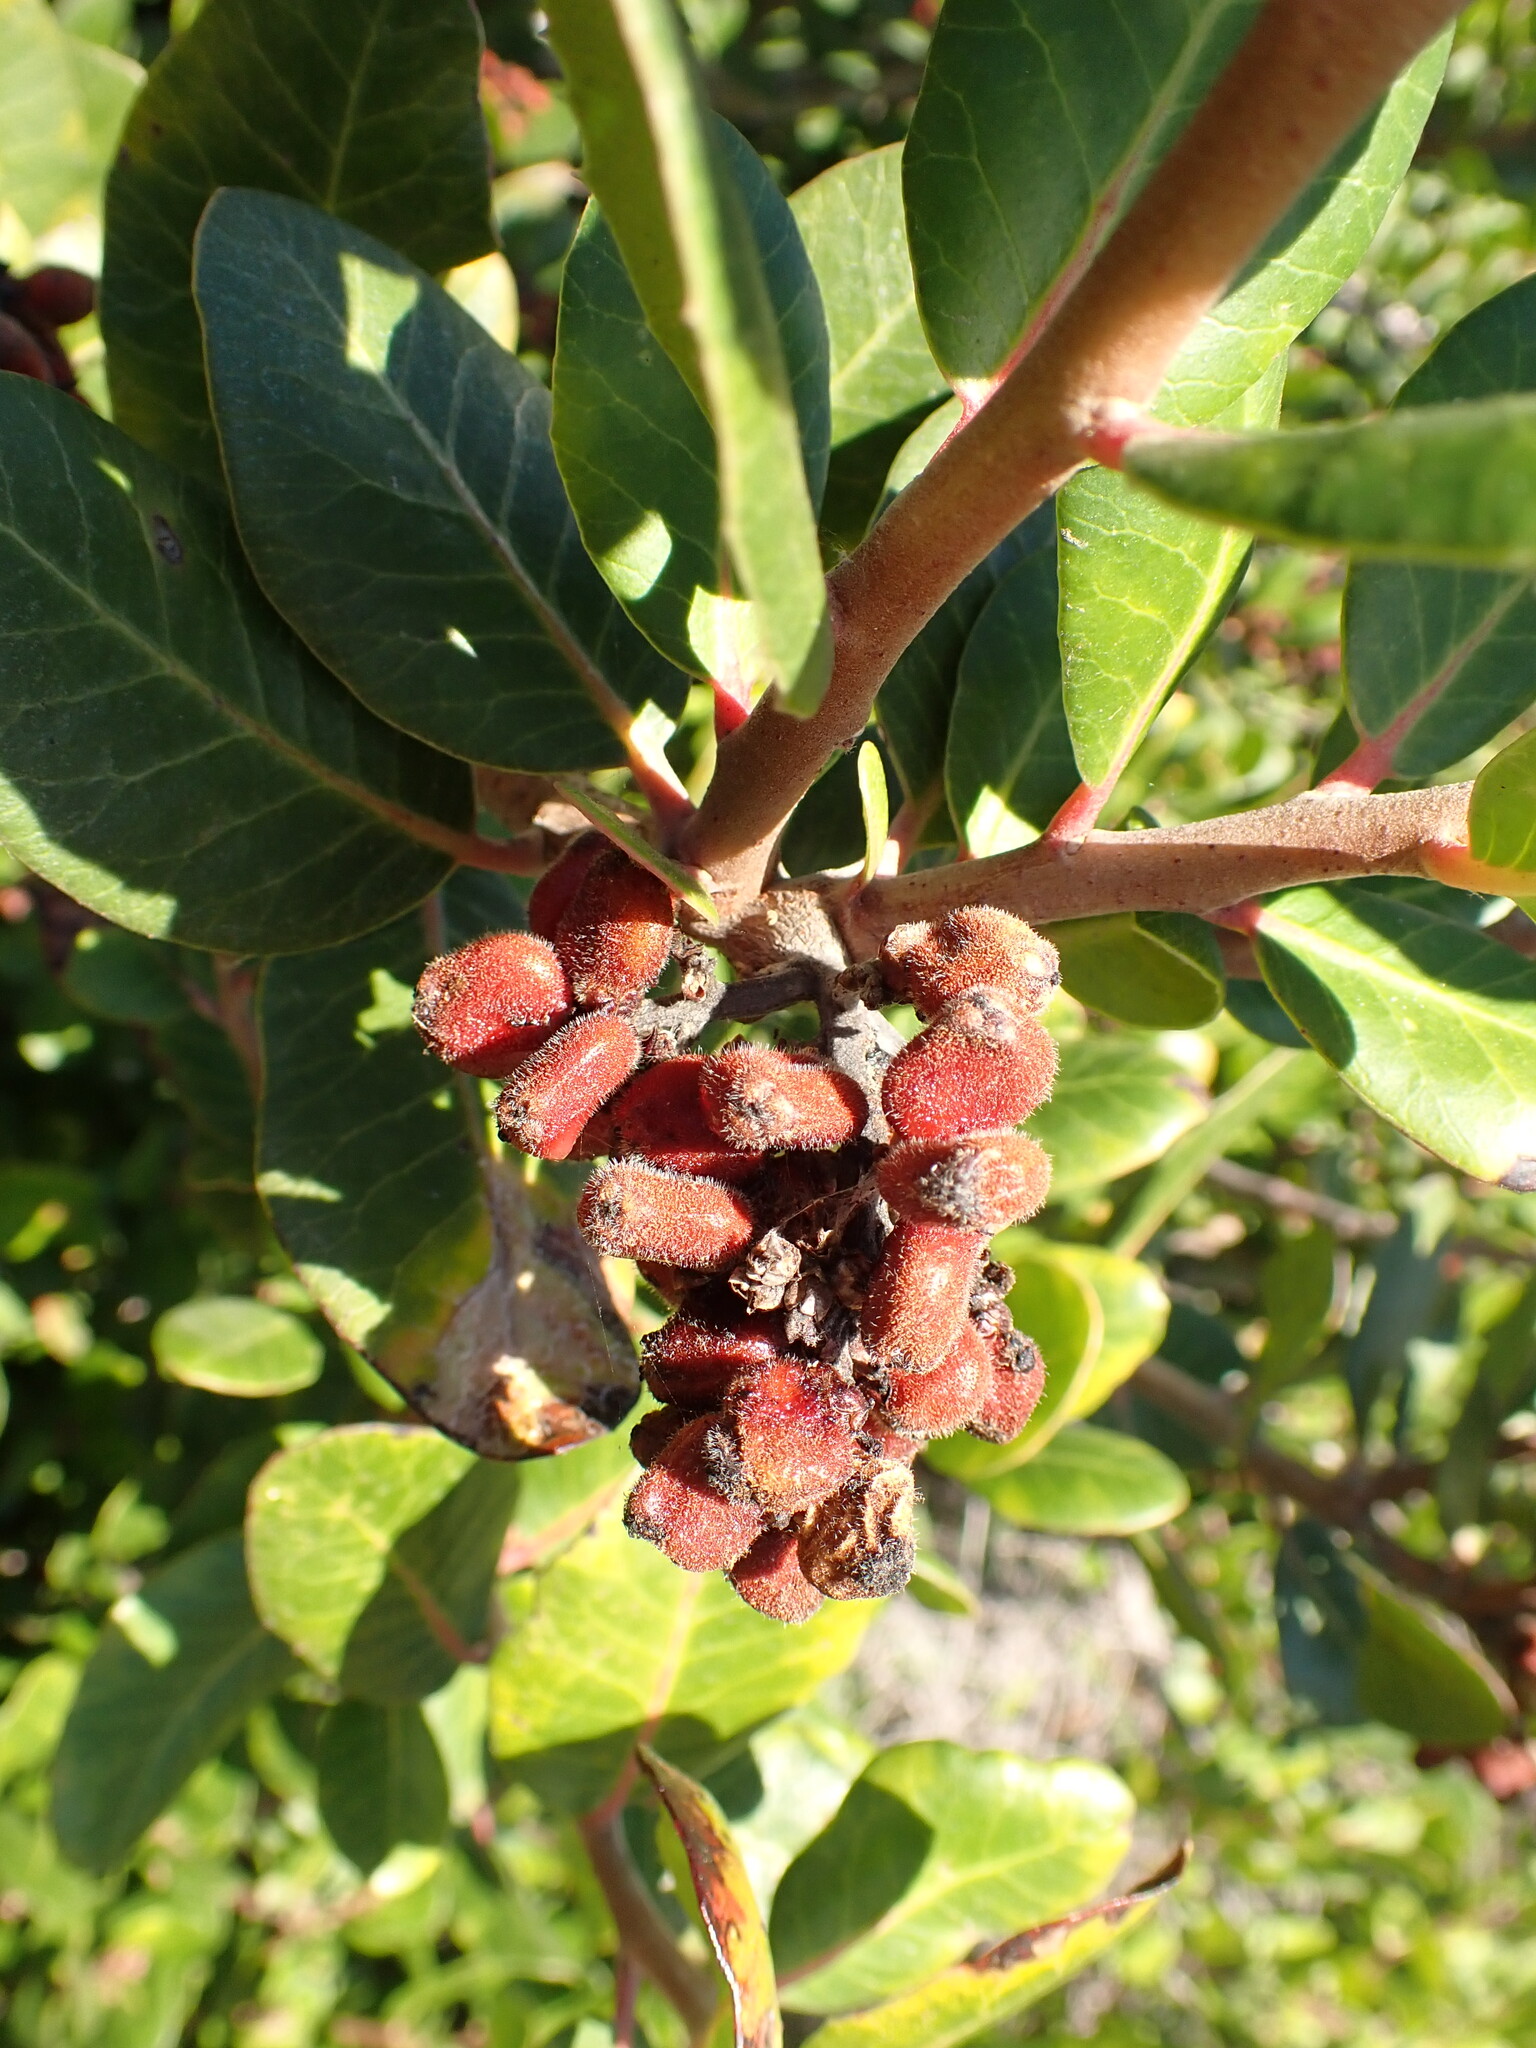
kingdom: Plantae
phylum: Tracheophyta
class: Magnoliopsida
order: Sapindales
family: Anacardiaceae
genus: Rhus
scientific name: Rhus integrifolia
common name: Lemonade sumac
